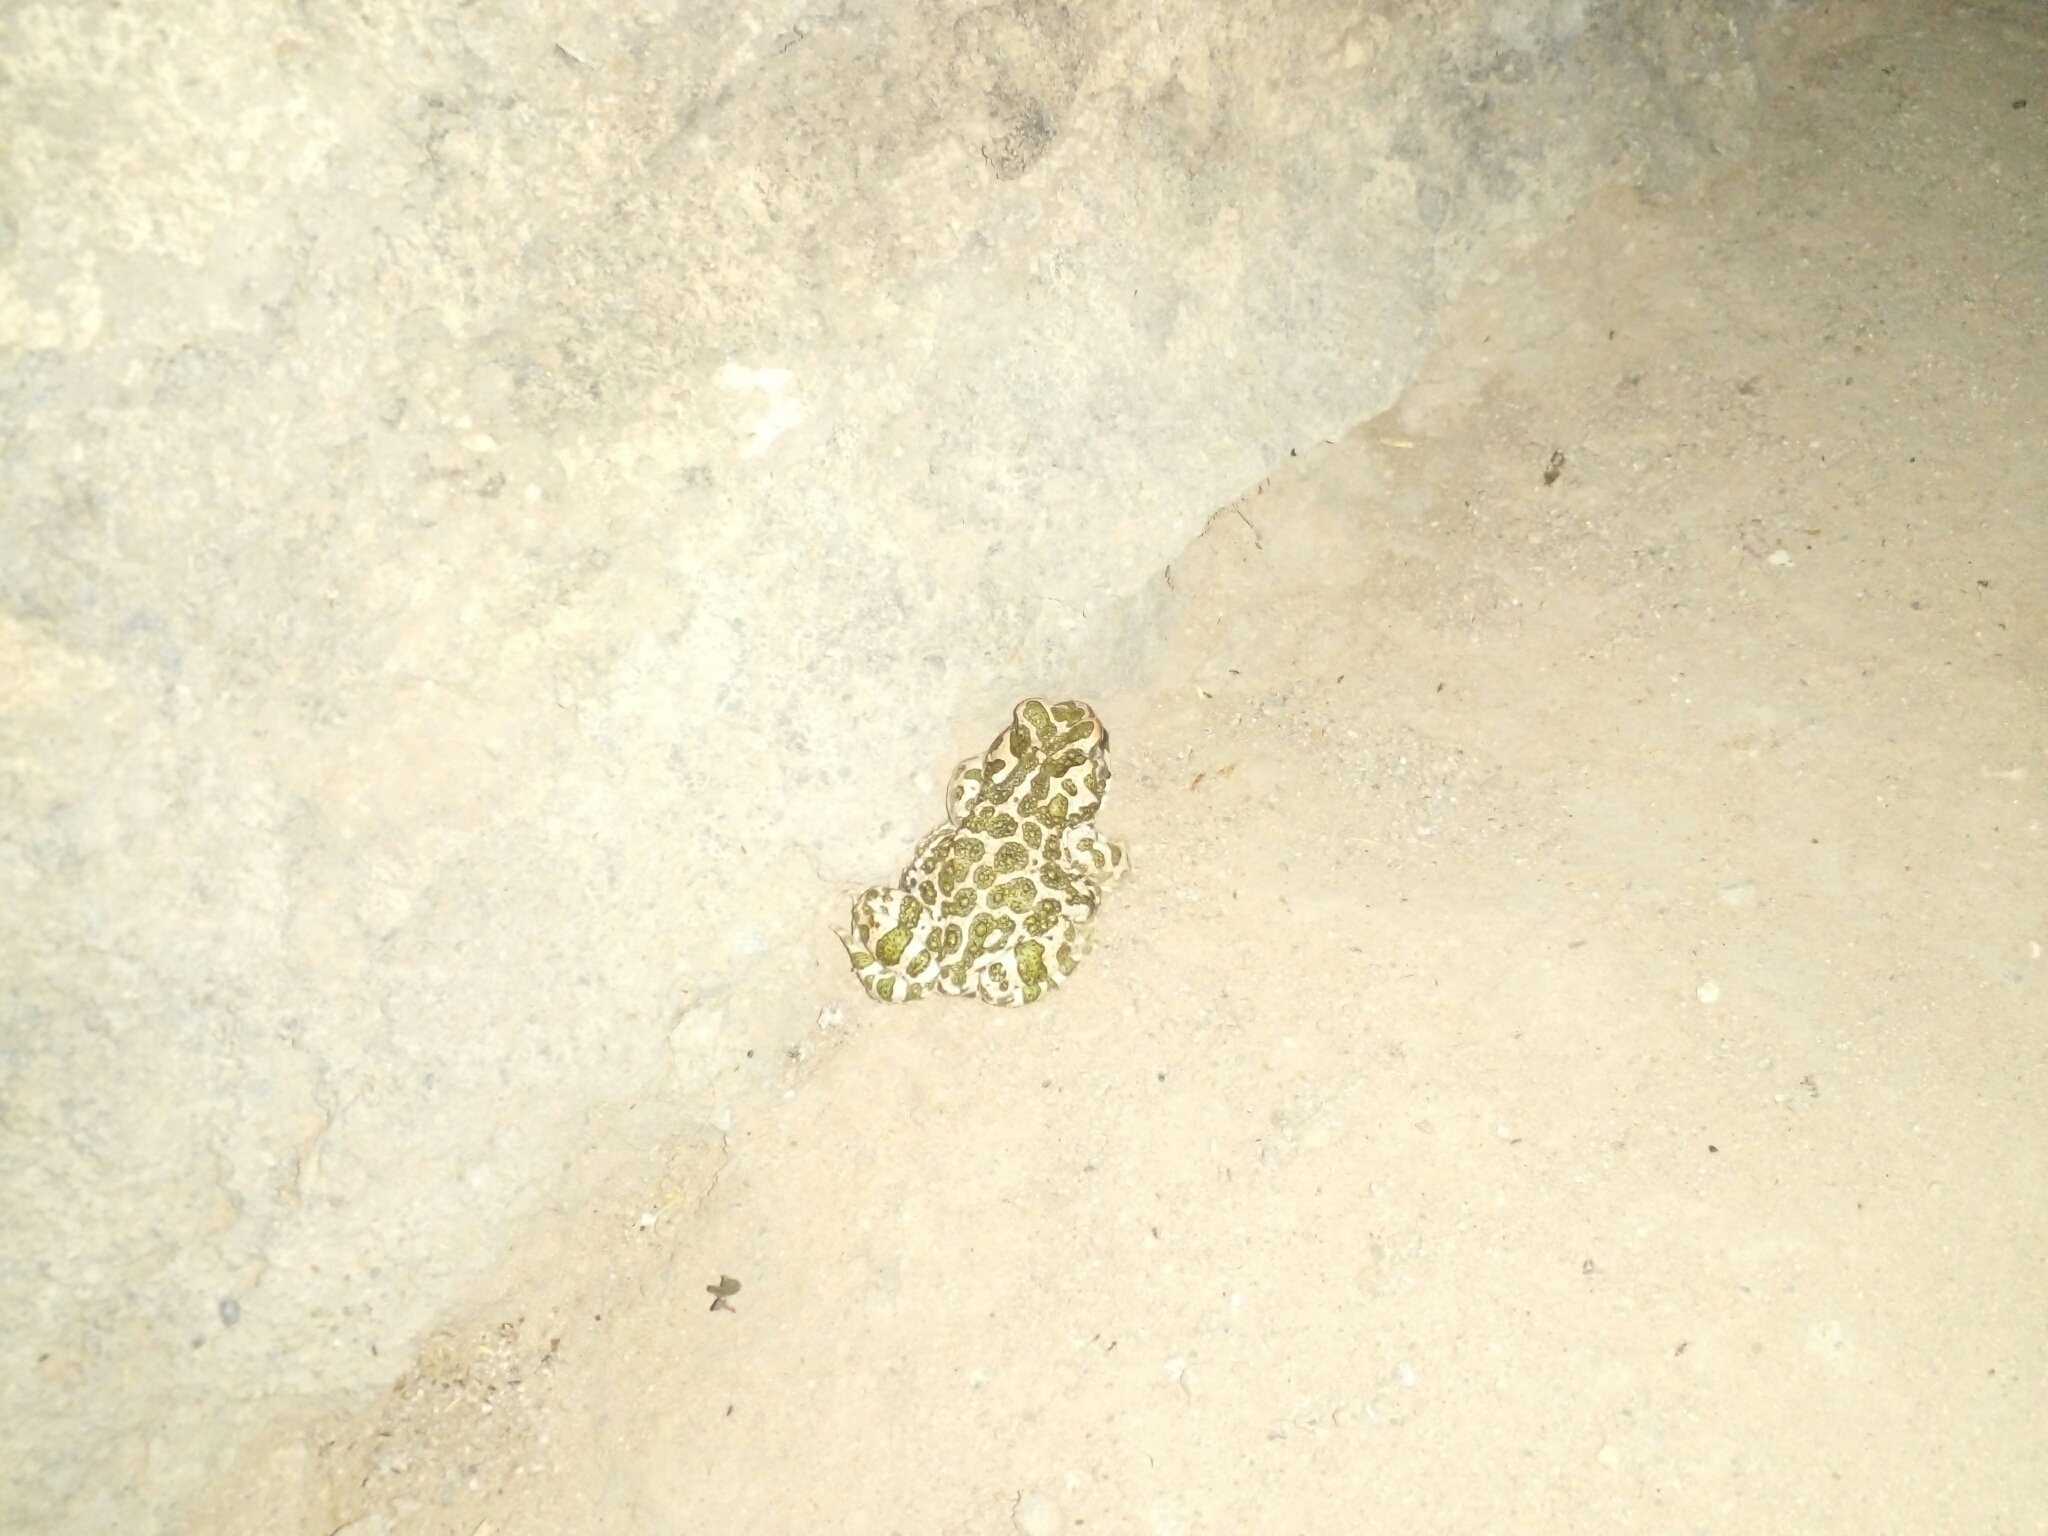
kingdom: Animalia
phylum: Chordata
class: Amphibia
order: Anura
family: Bufonidae
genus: Bufotes
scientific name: Bufotes viridis
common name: European green toad
